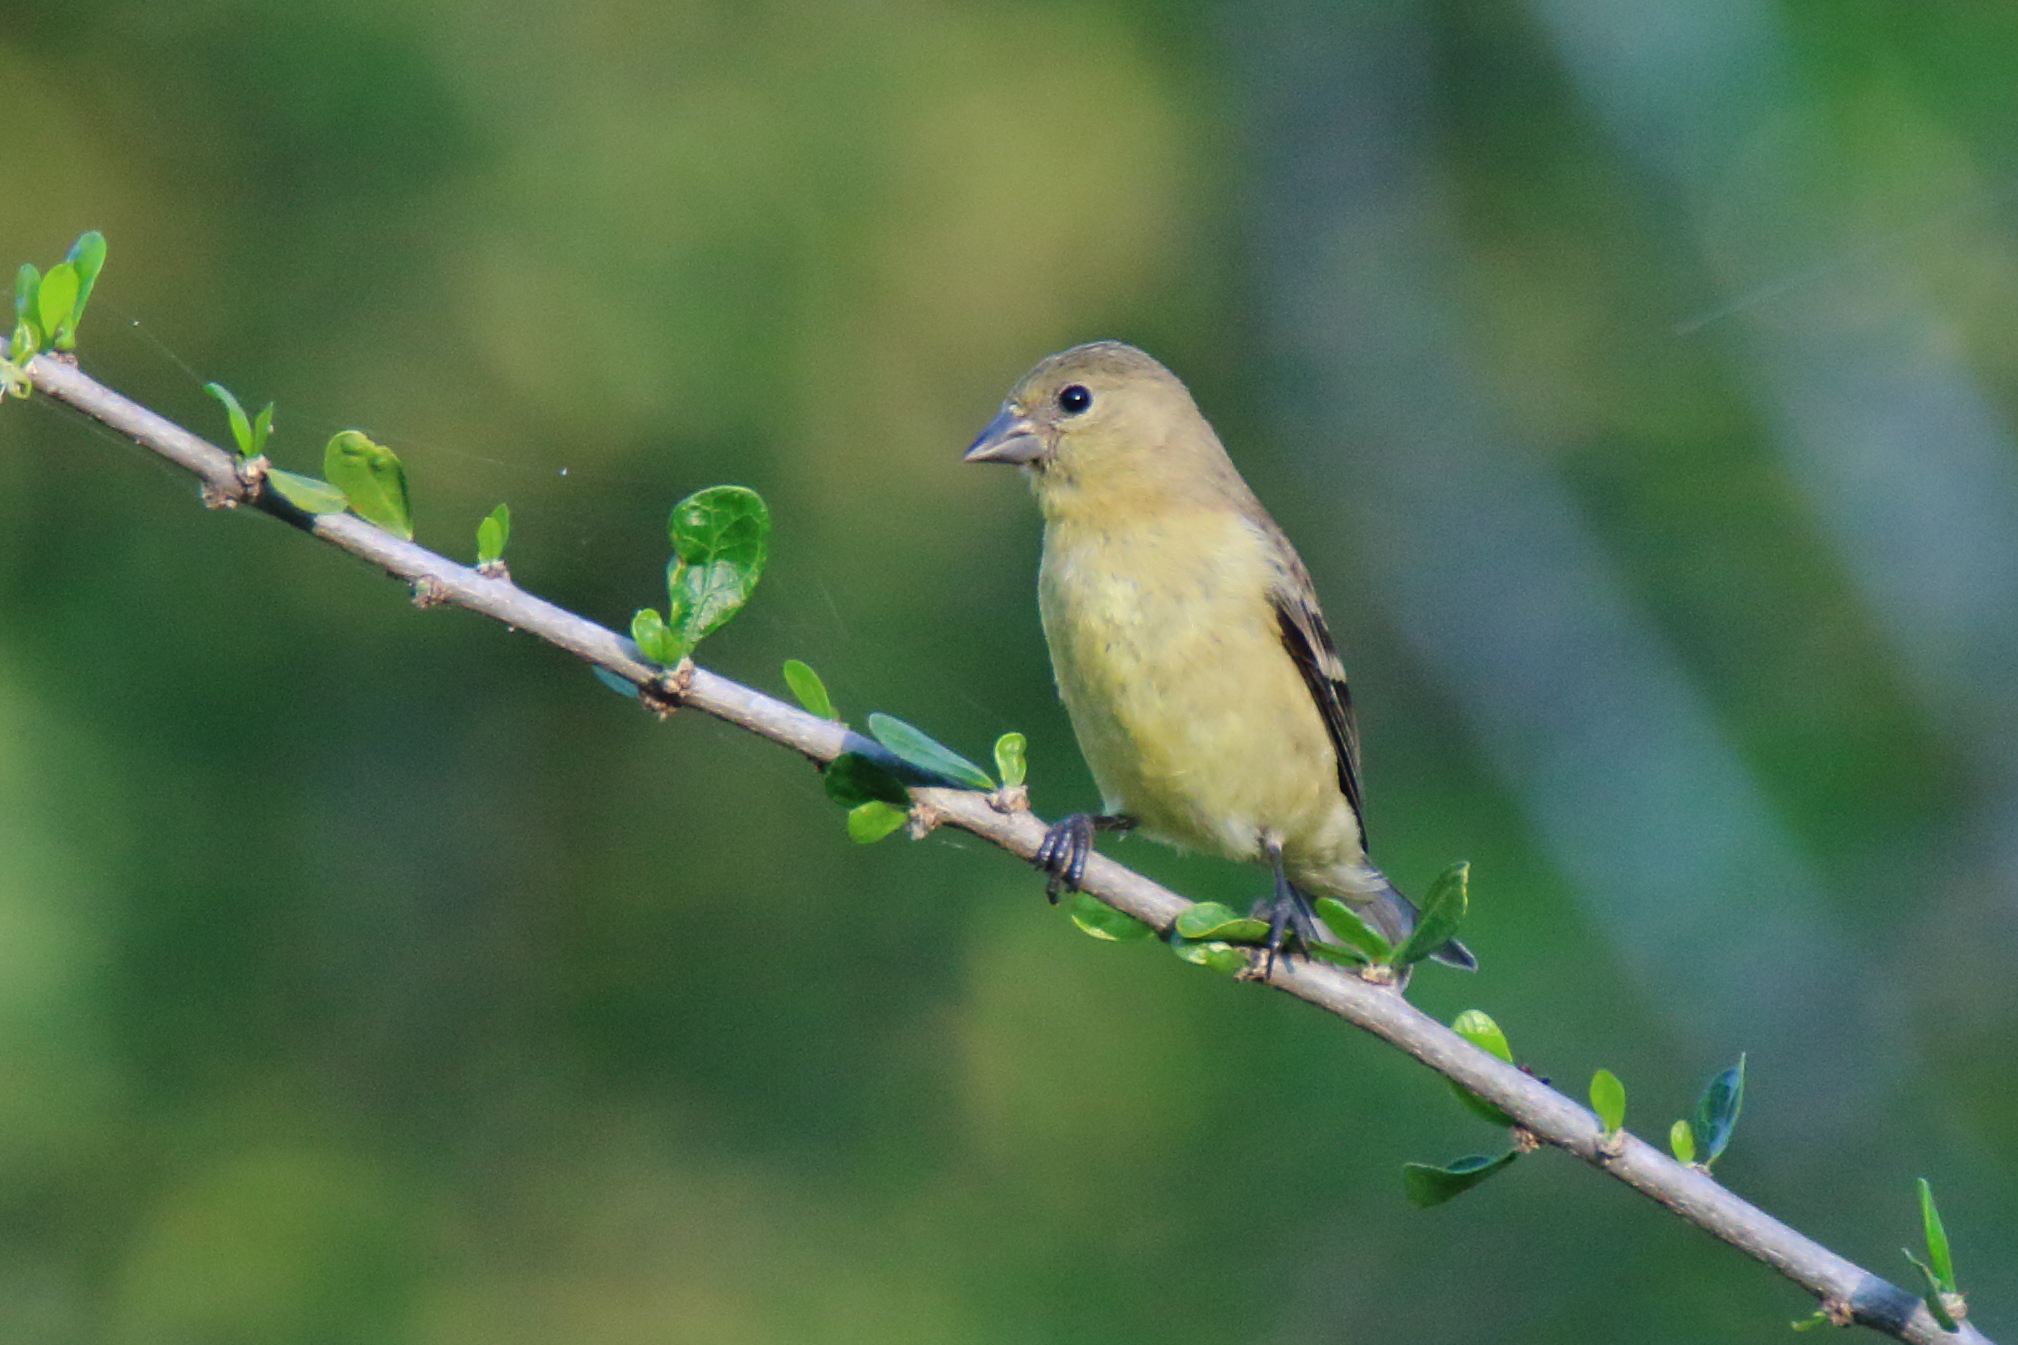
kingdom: Animalia
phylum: Chordata
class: Aves
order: Passeriformes
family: Fringillidae
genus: Spinus
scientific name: Spinus psaltria
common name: Lesser goldfinch
